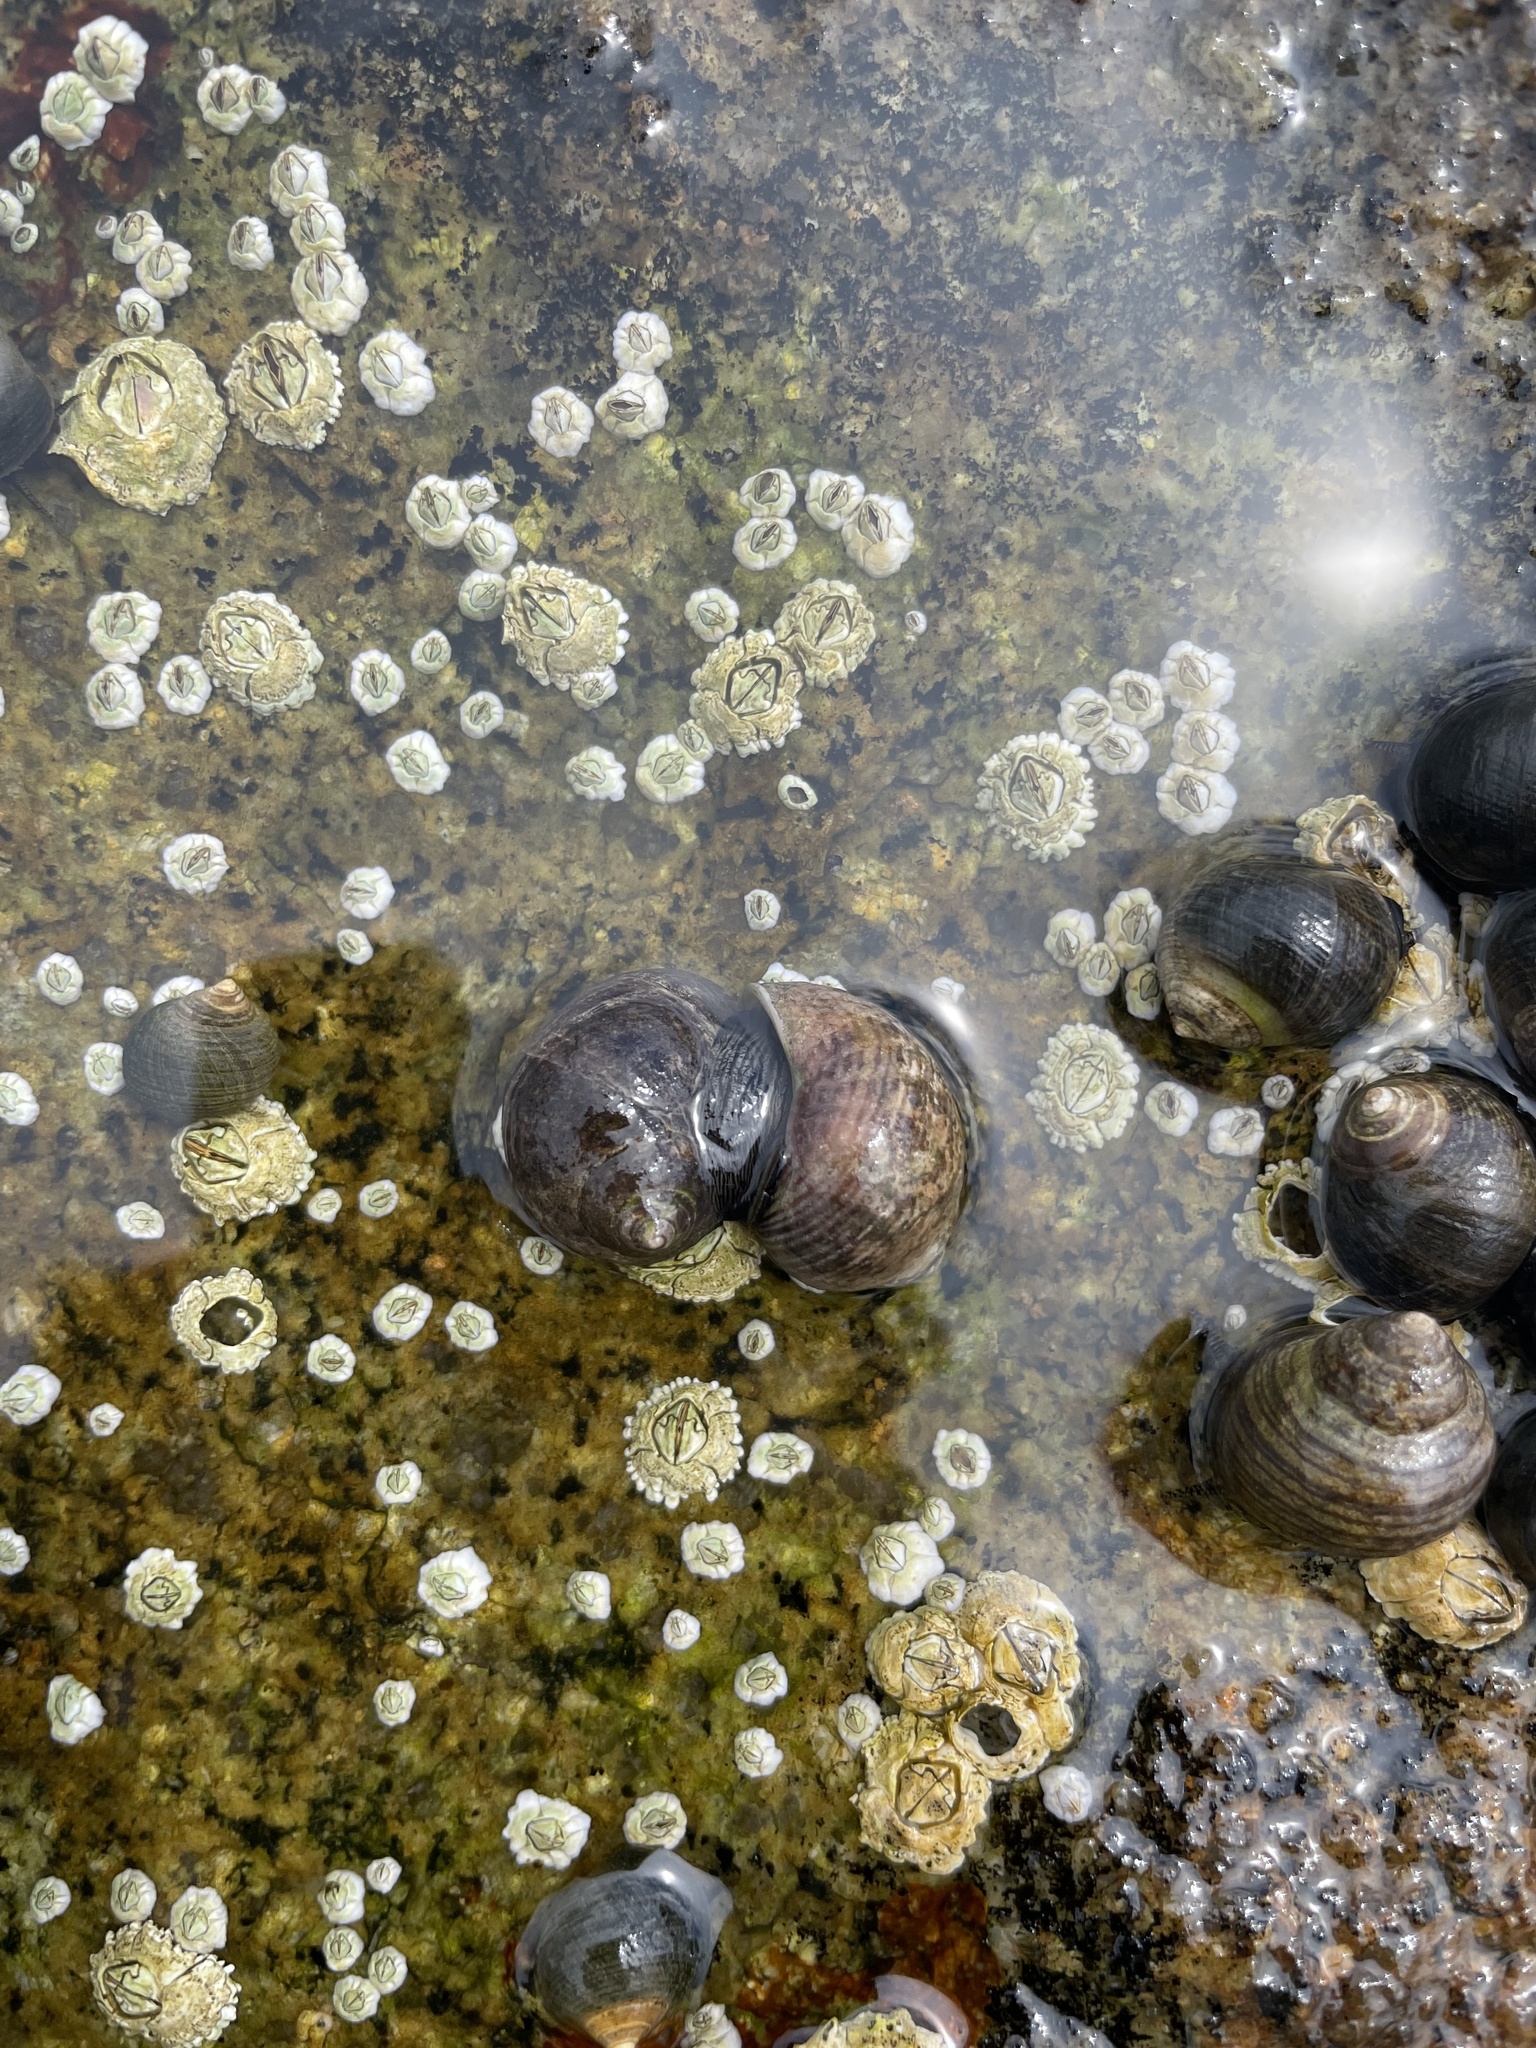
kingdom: Animalia
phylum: Mollusca
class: Gastropoda
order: Littorinimorpha
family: Littorinidae
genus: Littorina
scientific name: Littorina littorea
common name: Common periwinkle
